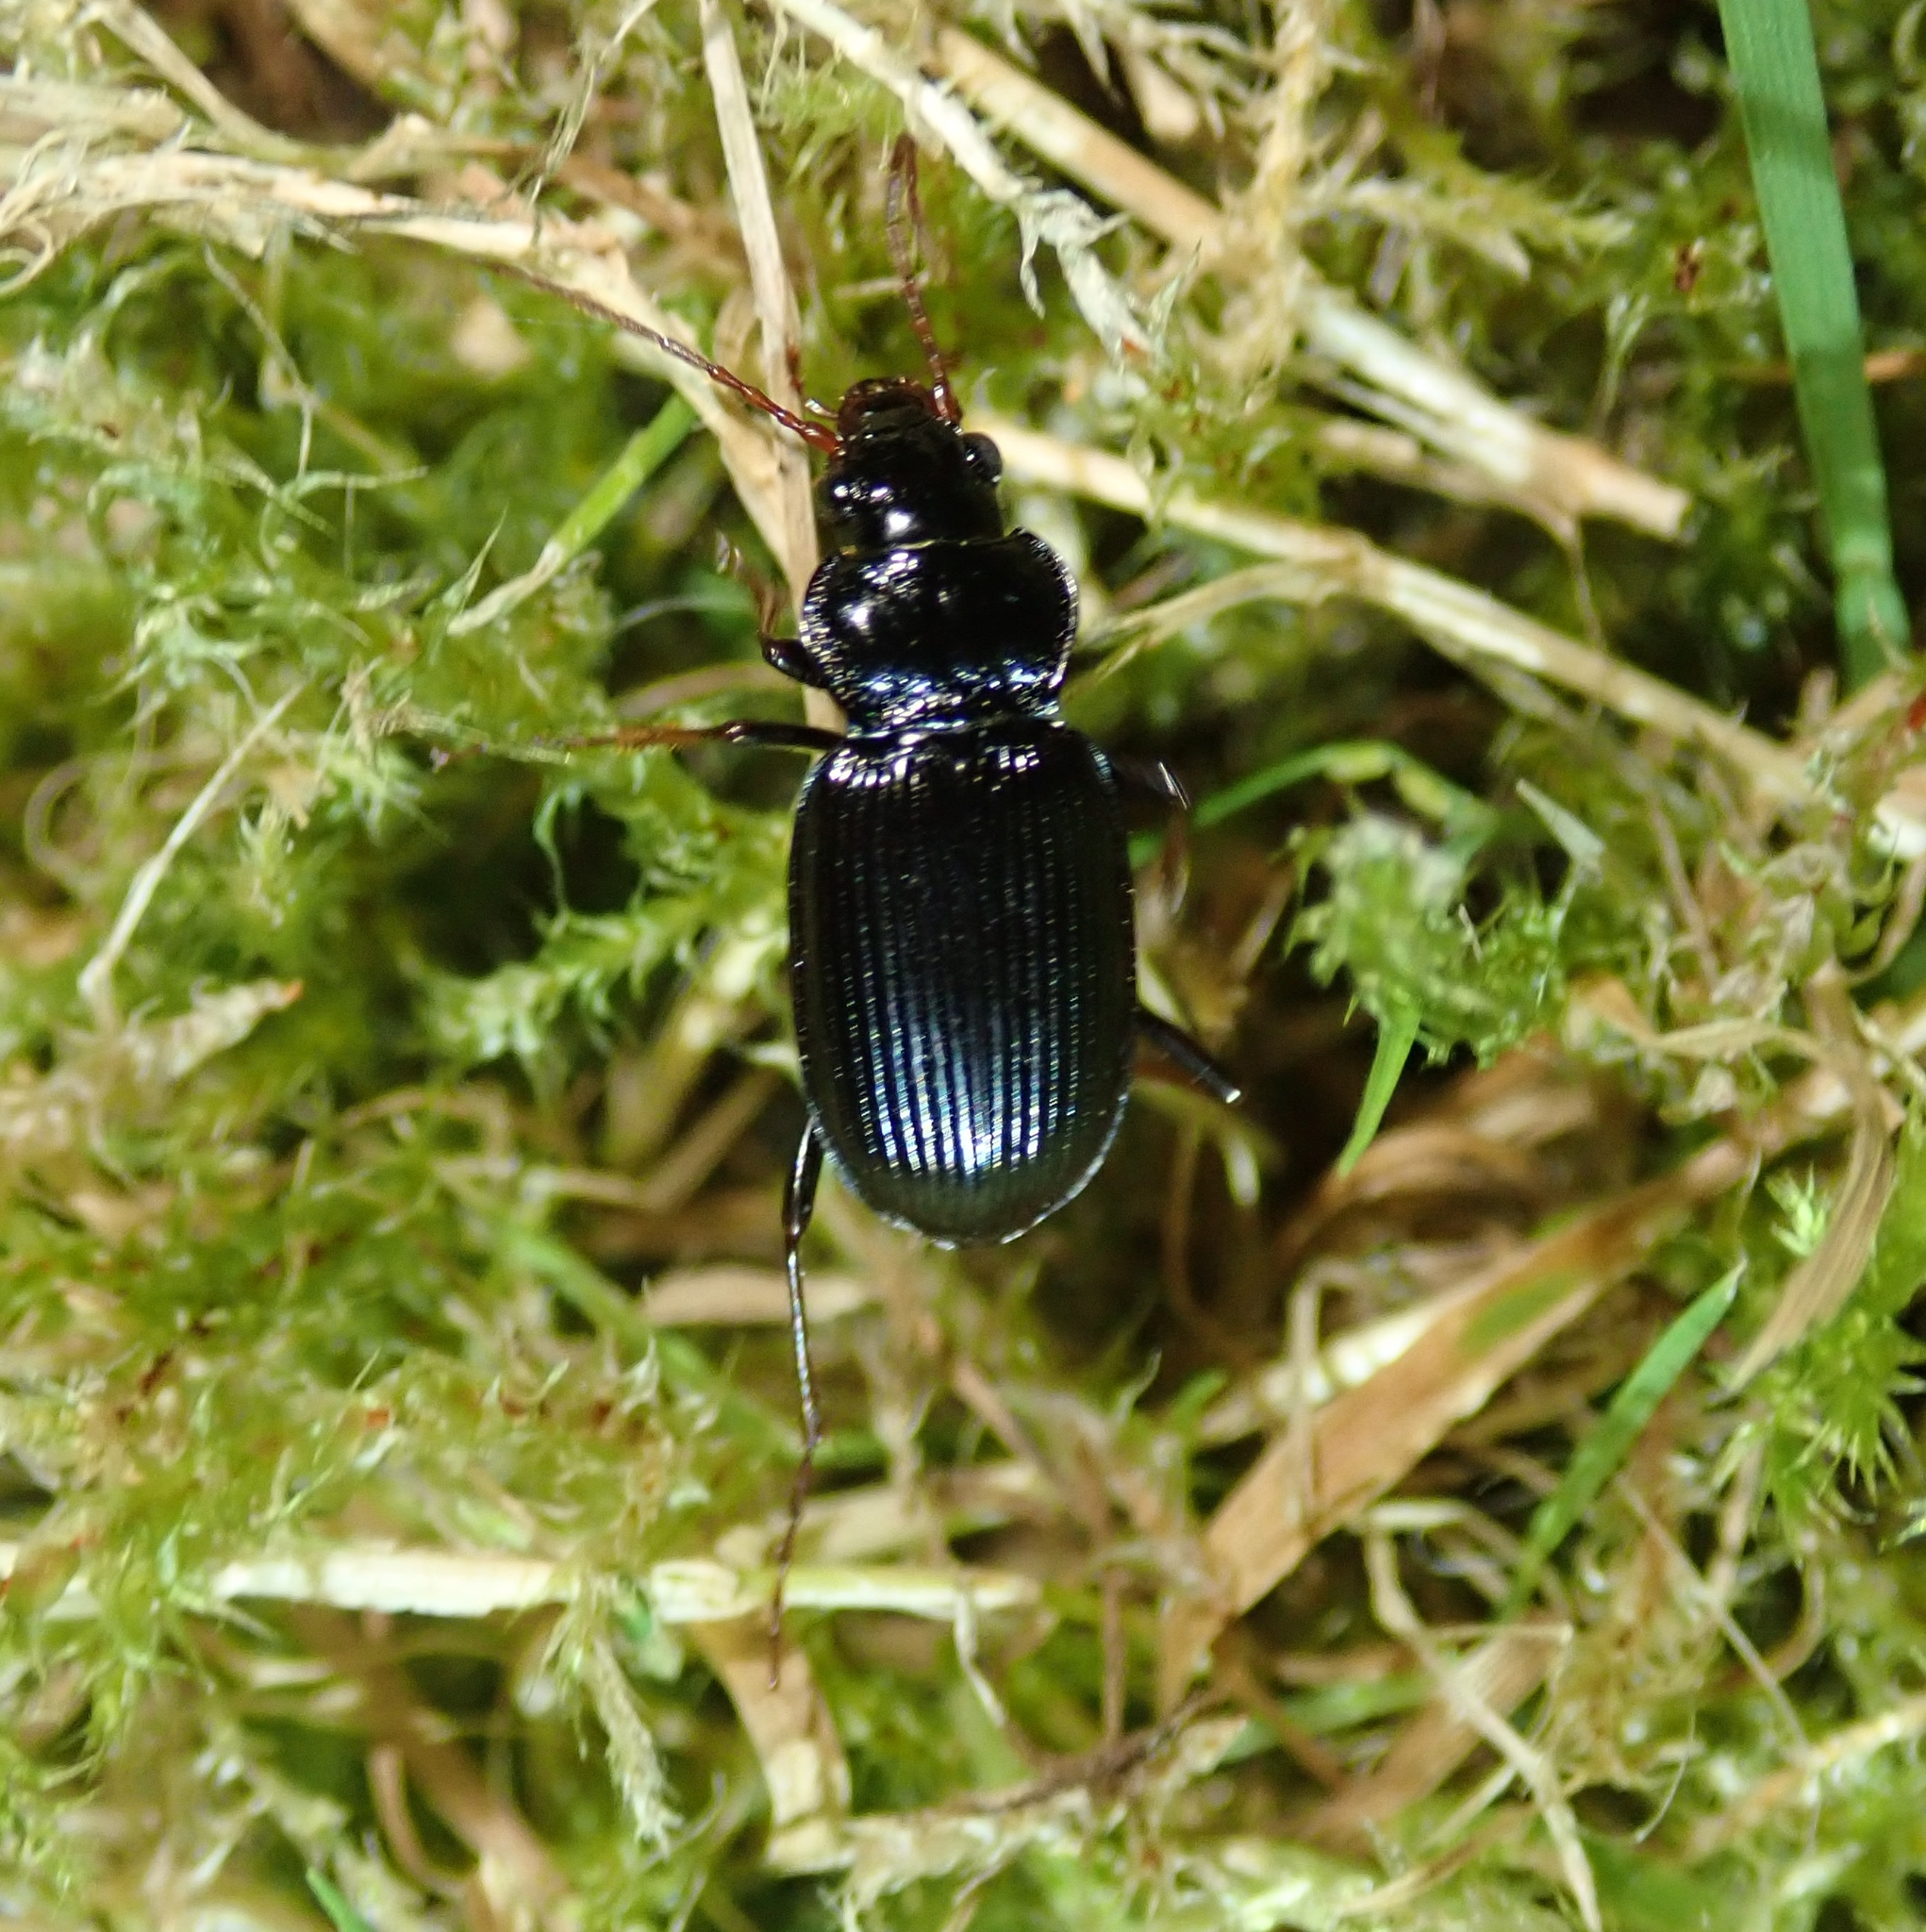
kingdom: Animalia
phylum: Arthropoda
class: Insecta
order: Coleoptera
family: Carabidae
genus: Nebria
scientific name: Nebria brevicollis
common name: Short-necked gazelle beetle
